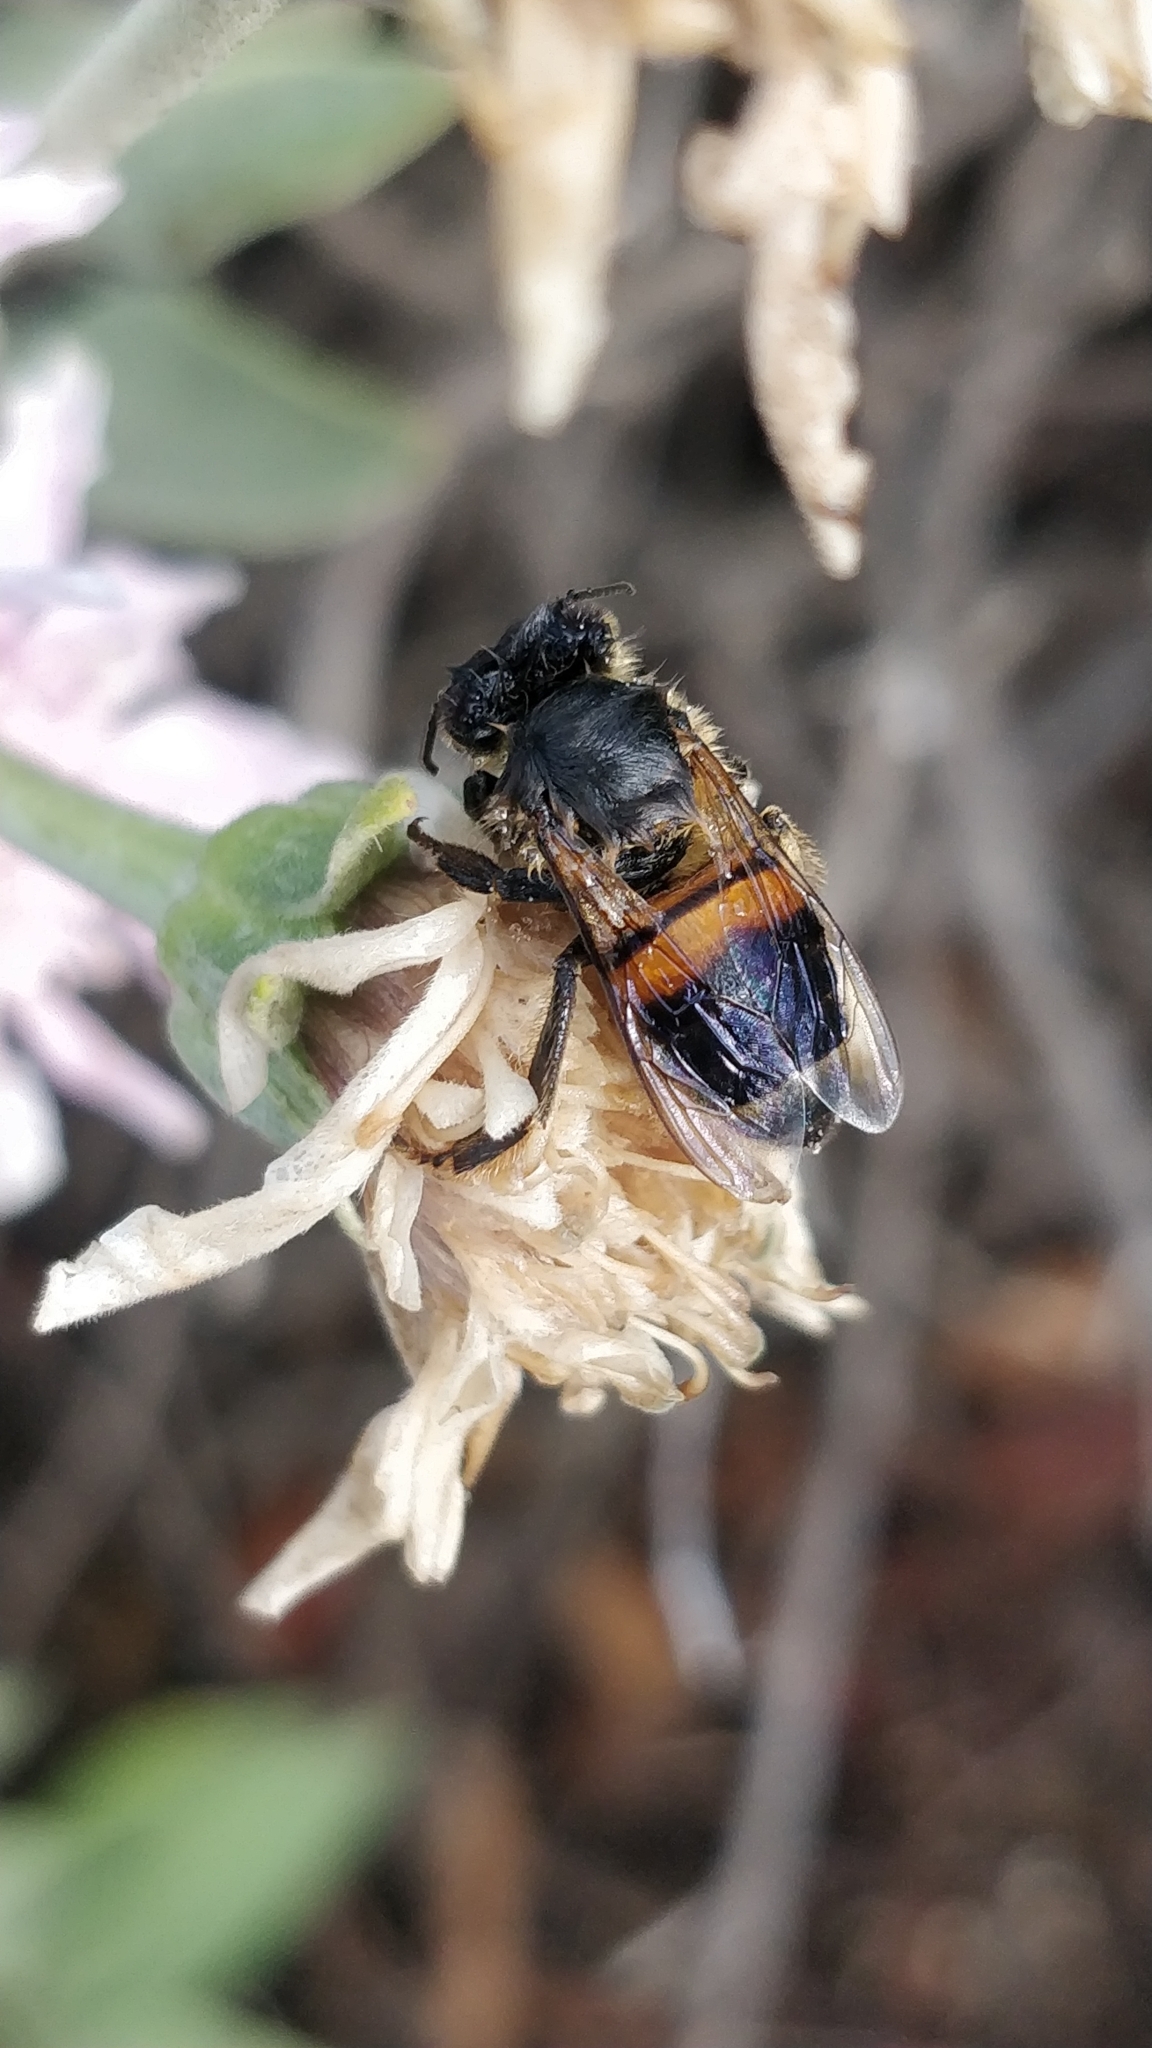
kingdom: Animalia
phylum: Arthropoda
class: Insecta
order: Hymenoptera
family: Apidae
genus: Apis
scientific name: Apis mellifera
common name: Honey bee
